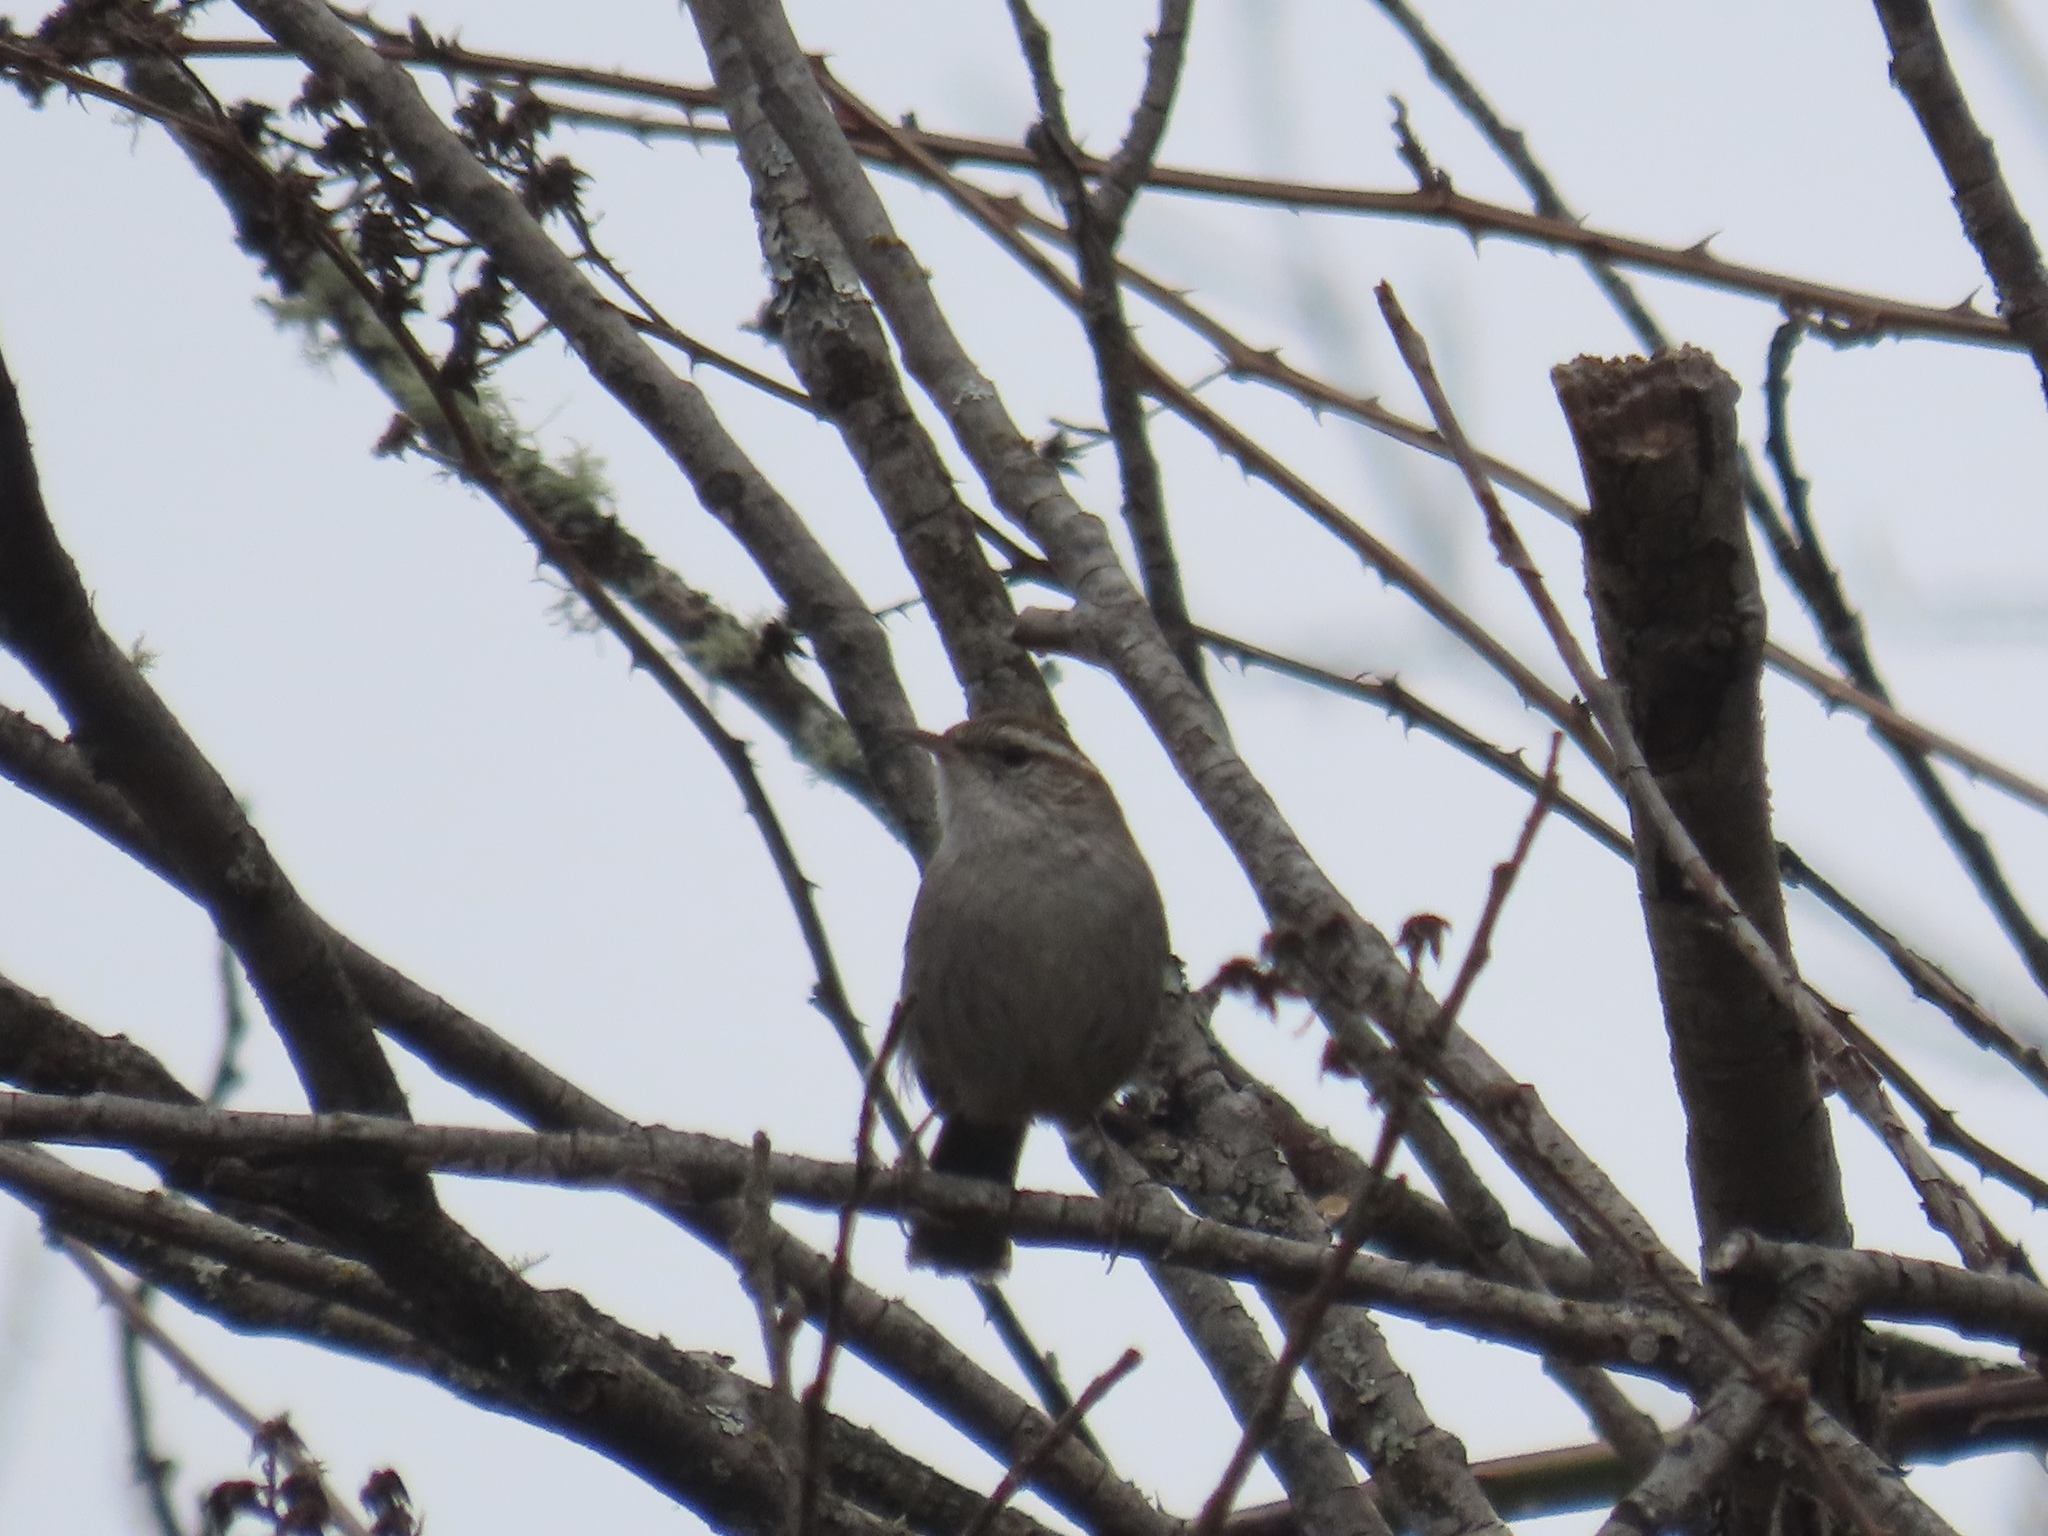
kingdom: Animalia
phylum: Chordata
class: Aves
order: Passeriformes
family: Troglodytidae
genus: Thryomanes
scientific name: Thryomanes bewickii
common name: Bewick's wren
